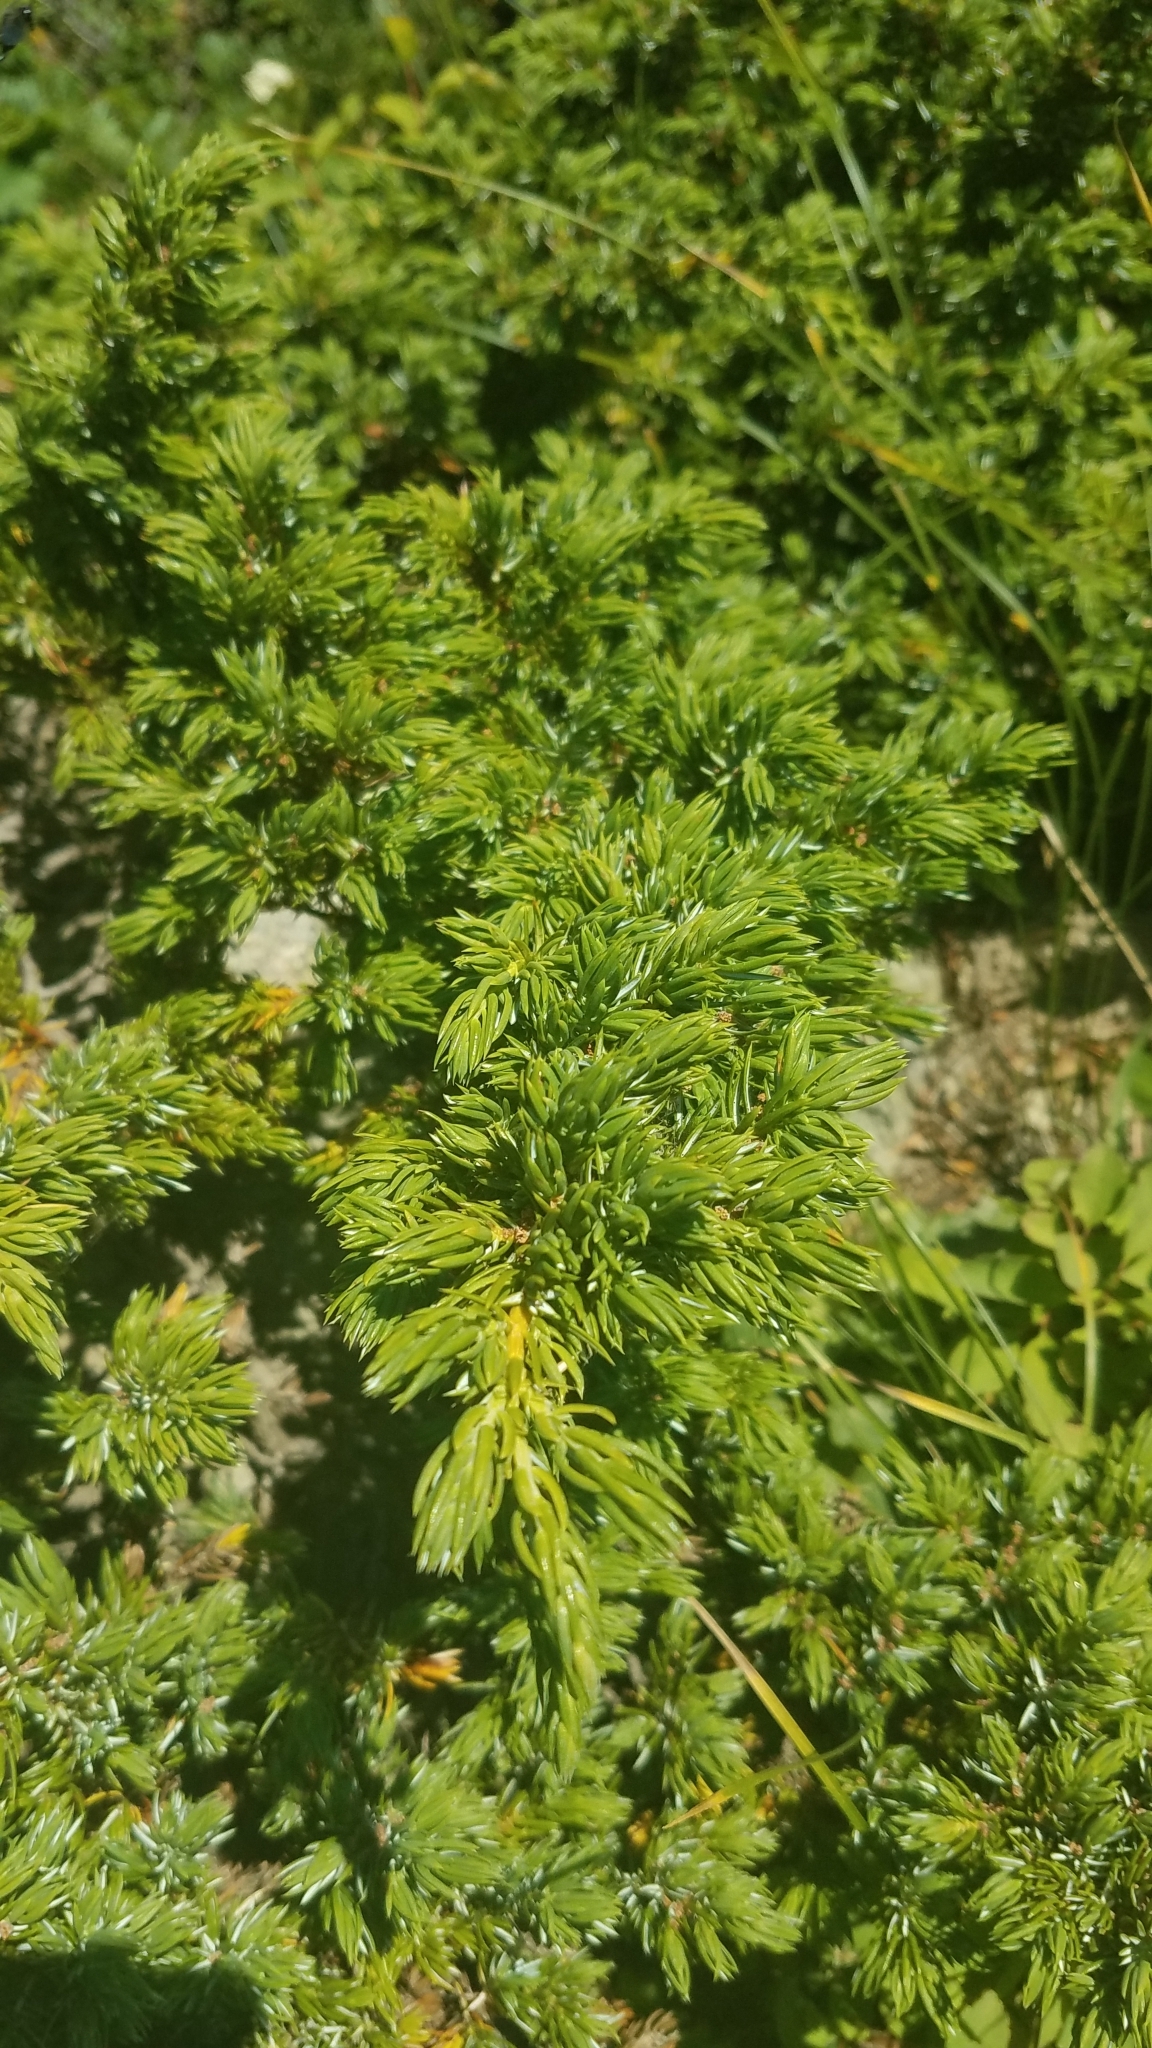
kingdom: Plantae
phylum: Tracheophyta
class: Pinopsida
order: Pinales
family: Cupressaceae
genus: Juniperus
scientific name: Juniperus communis
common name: Common juniper
